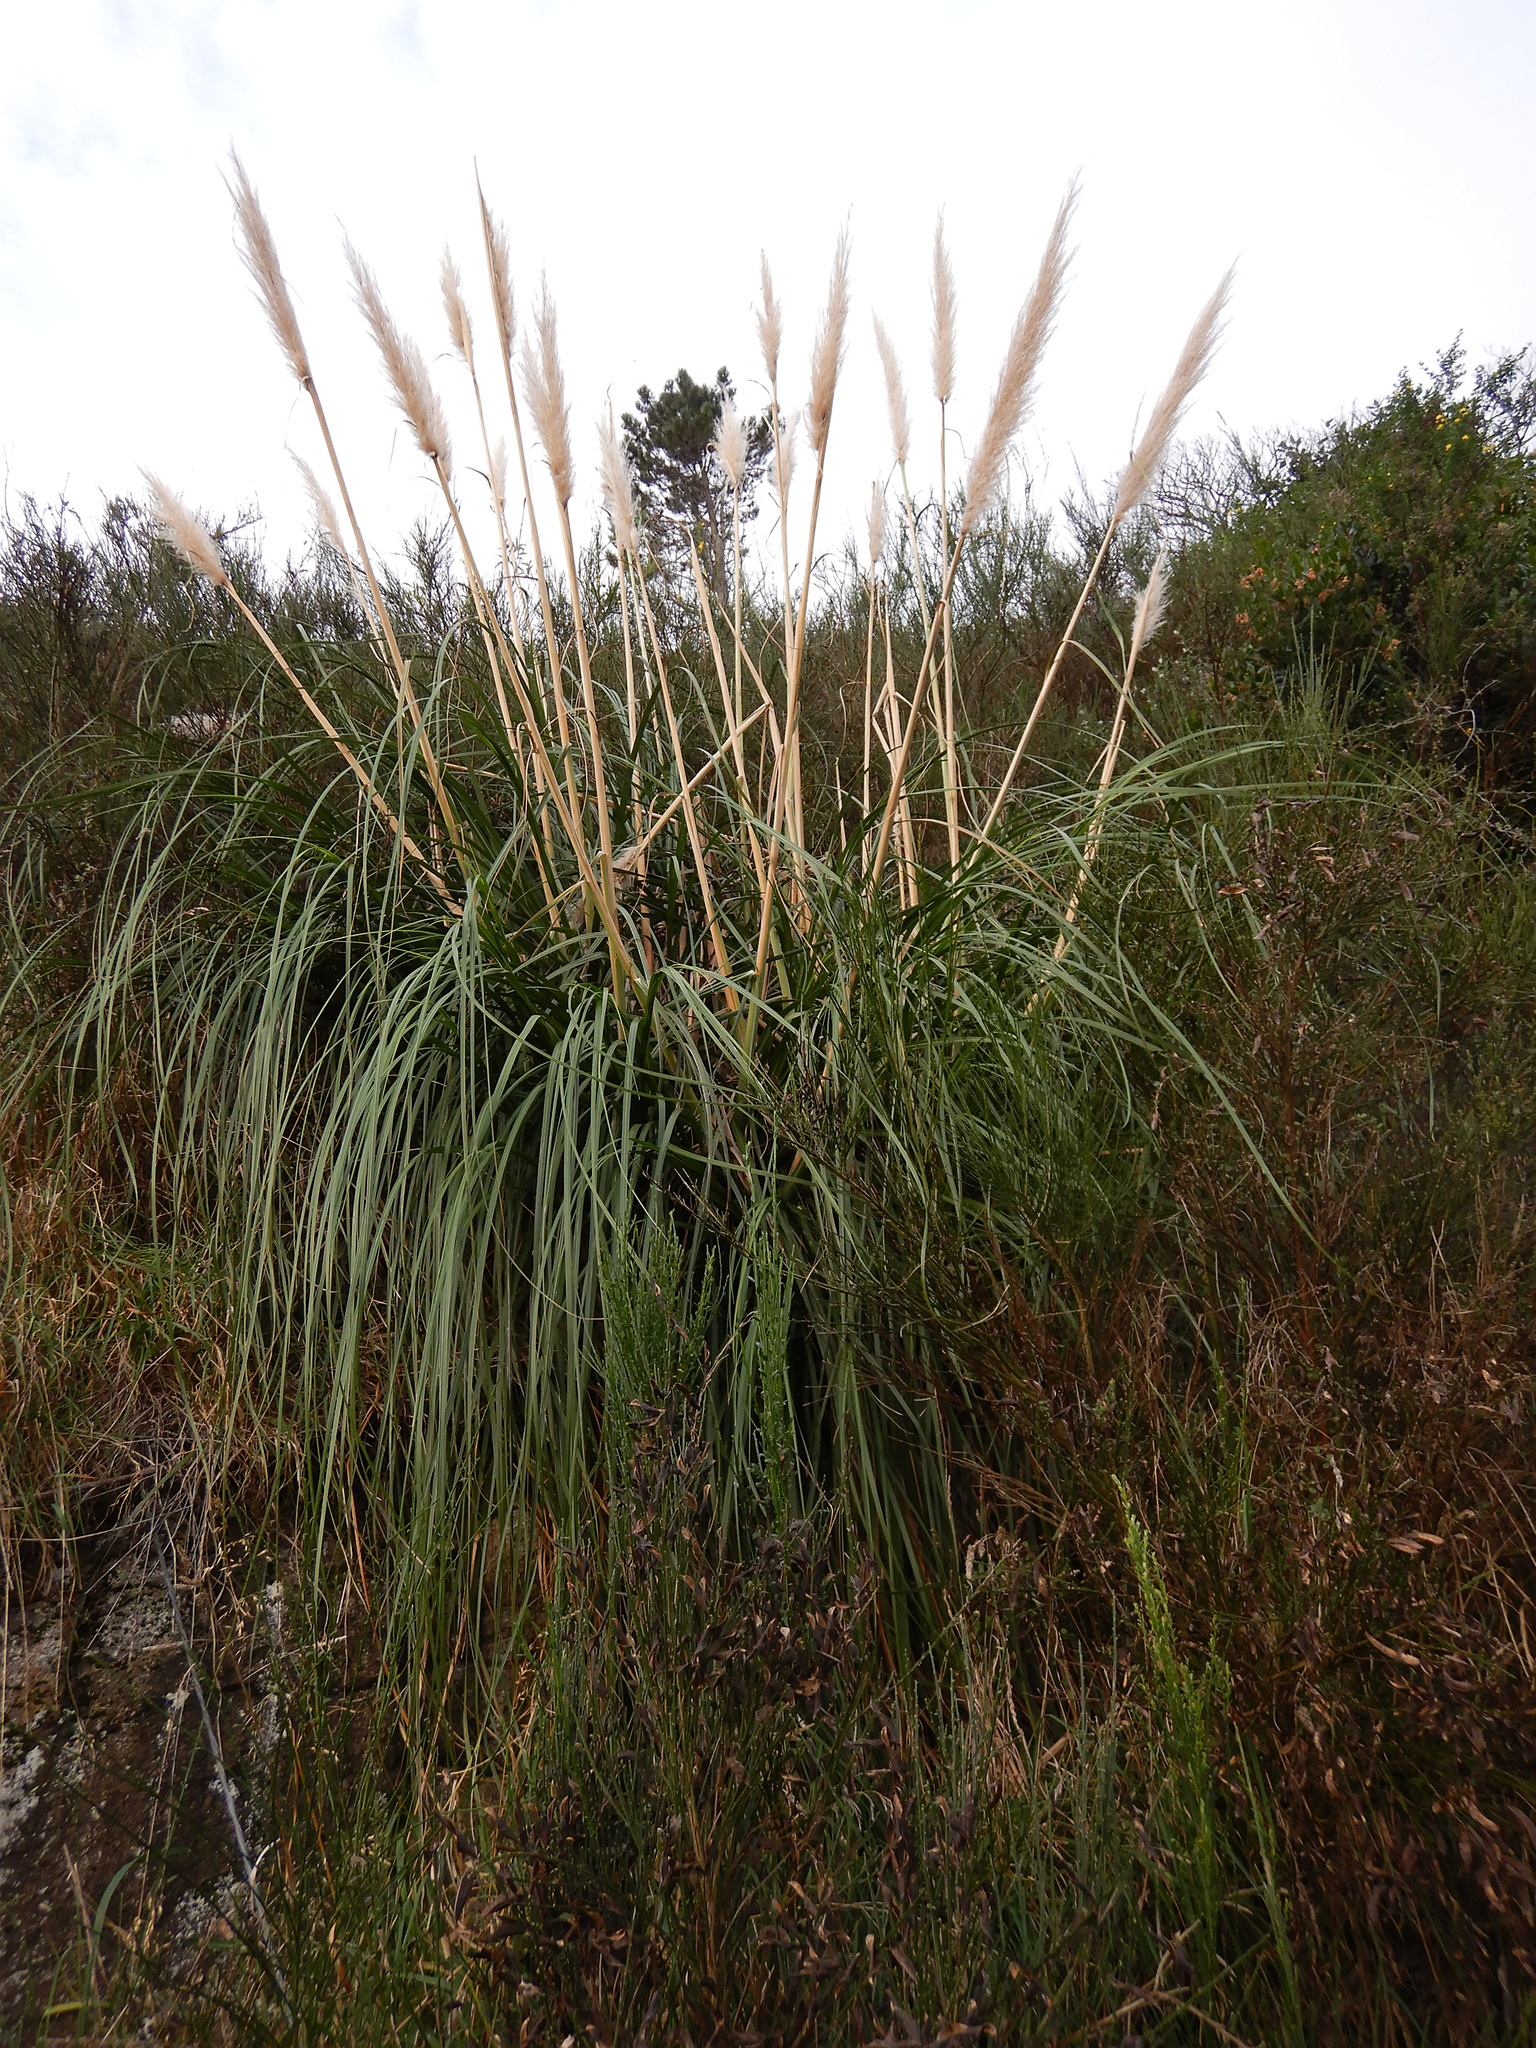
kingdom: Plantae
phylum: Tracheophyta
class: Liliopsida
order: Poales
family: Poaceae
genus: Cortaderia
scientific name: Cortaderia selloana
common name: Uruguayan pampas grass
